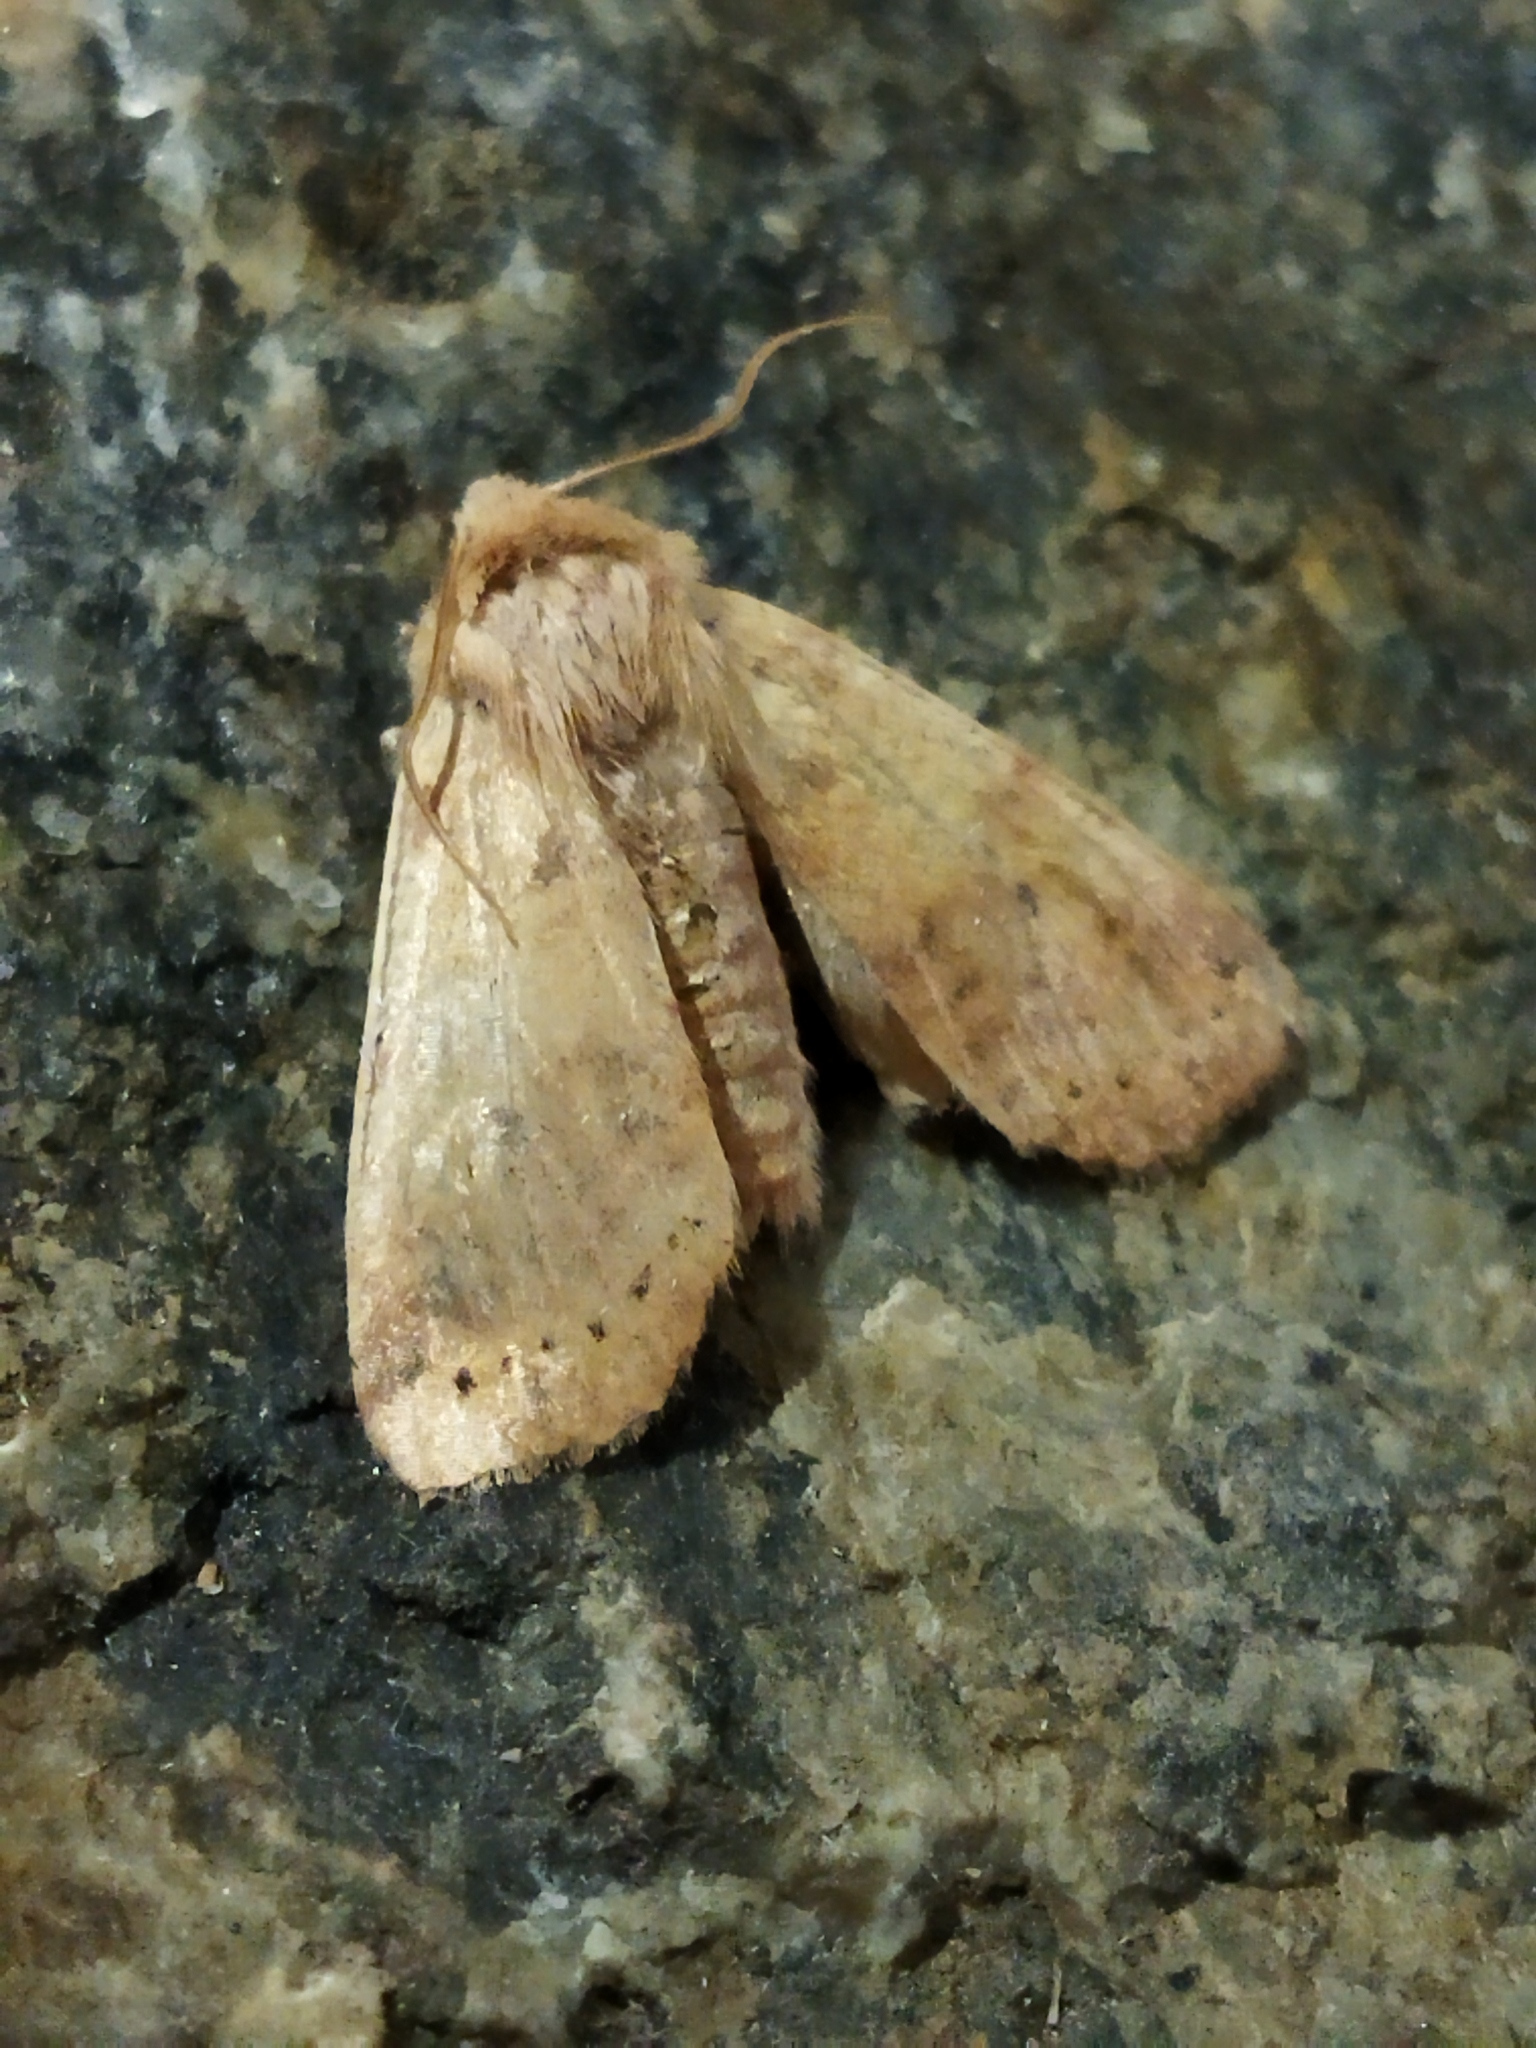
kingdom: Animalia
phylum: Arthropoda
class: Insecta
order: Lepidoptera
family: Noctuidae
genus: Xanthia
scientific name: Xanthia gilvago
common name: Dusky-lemon sallow
